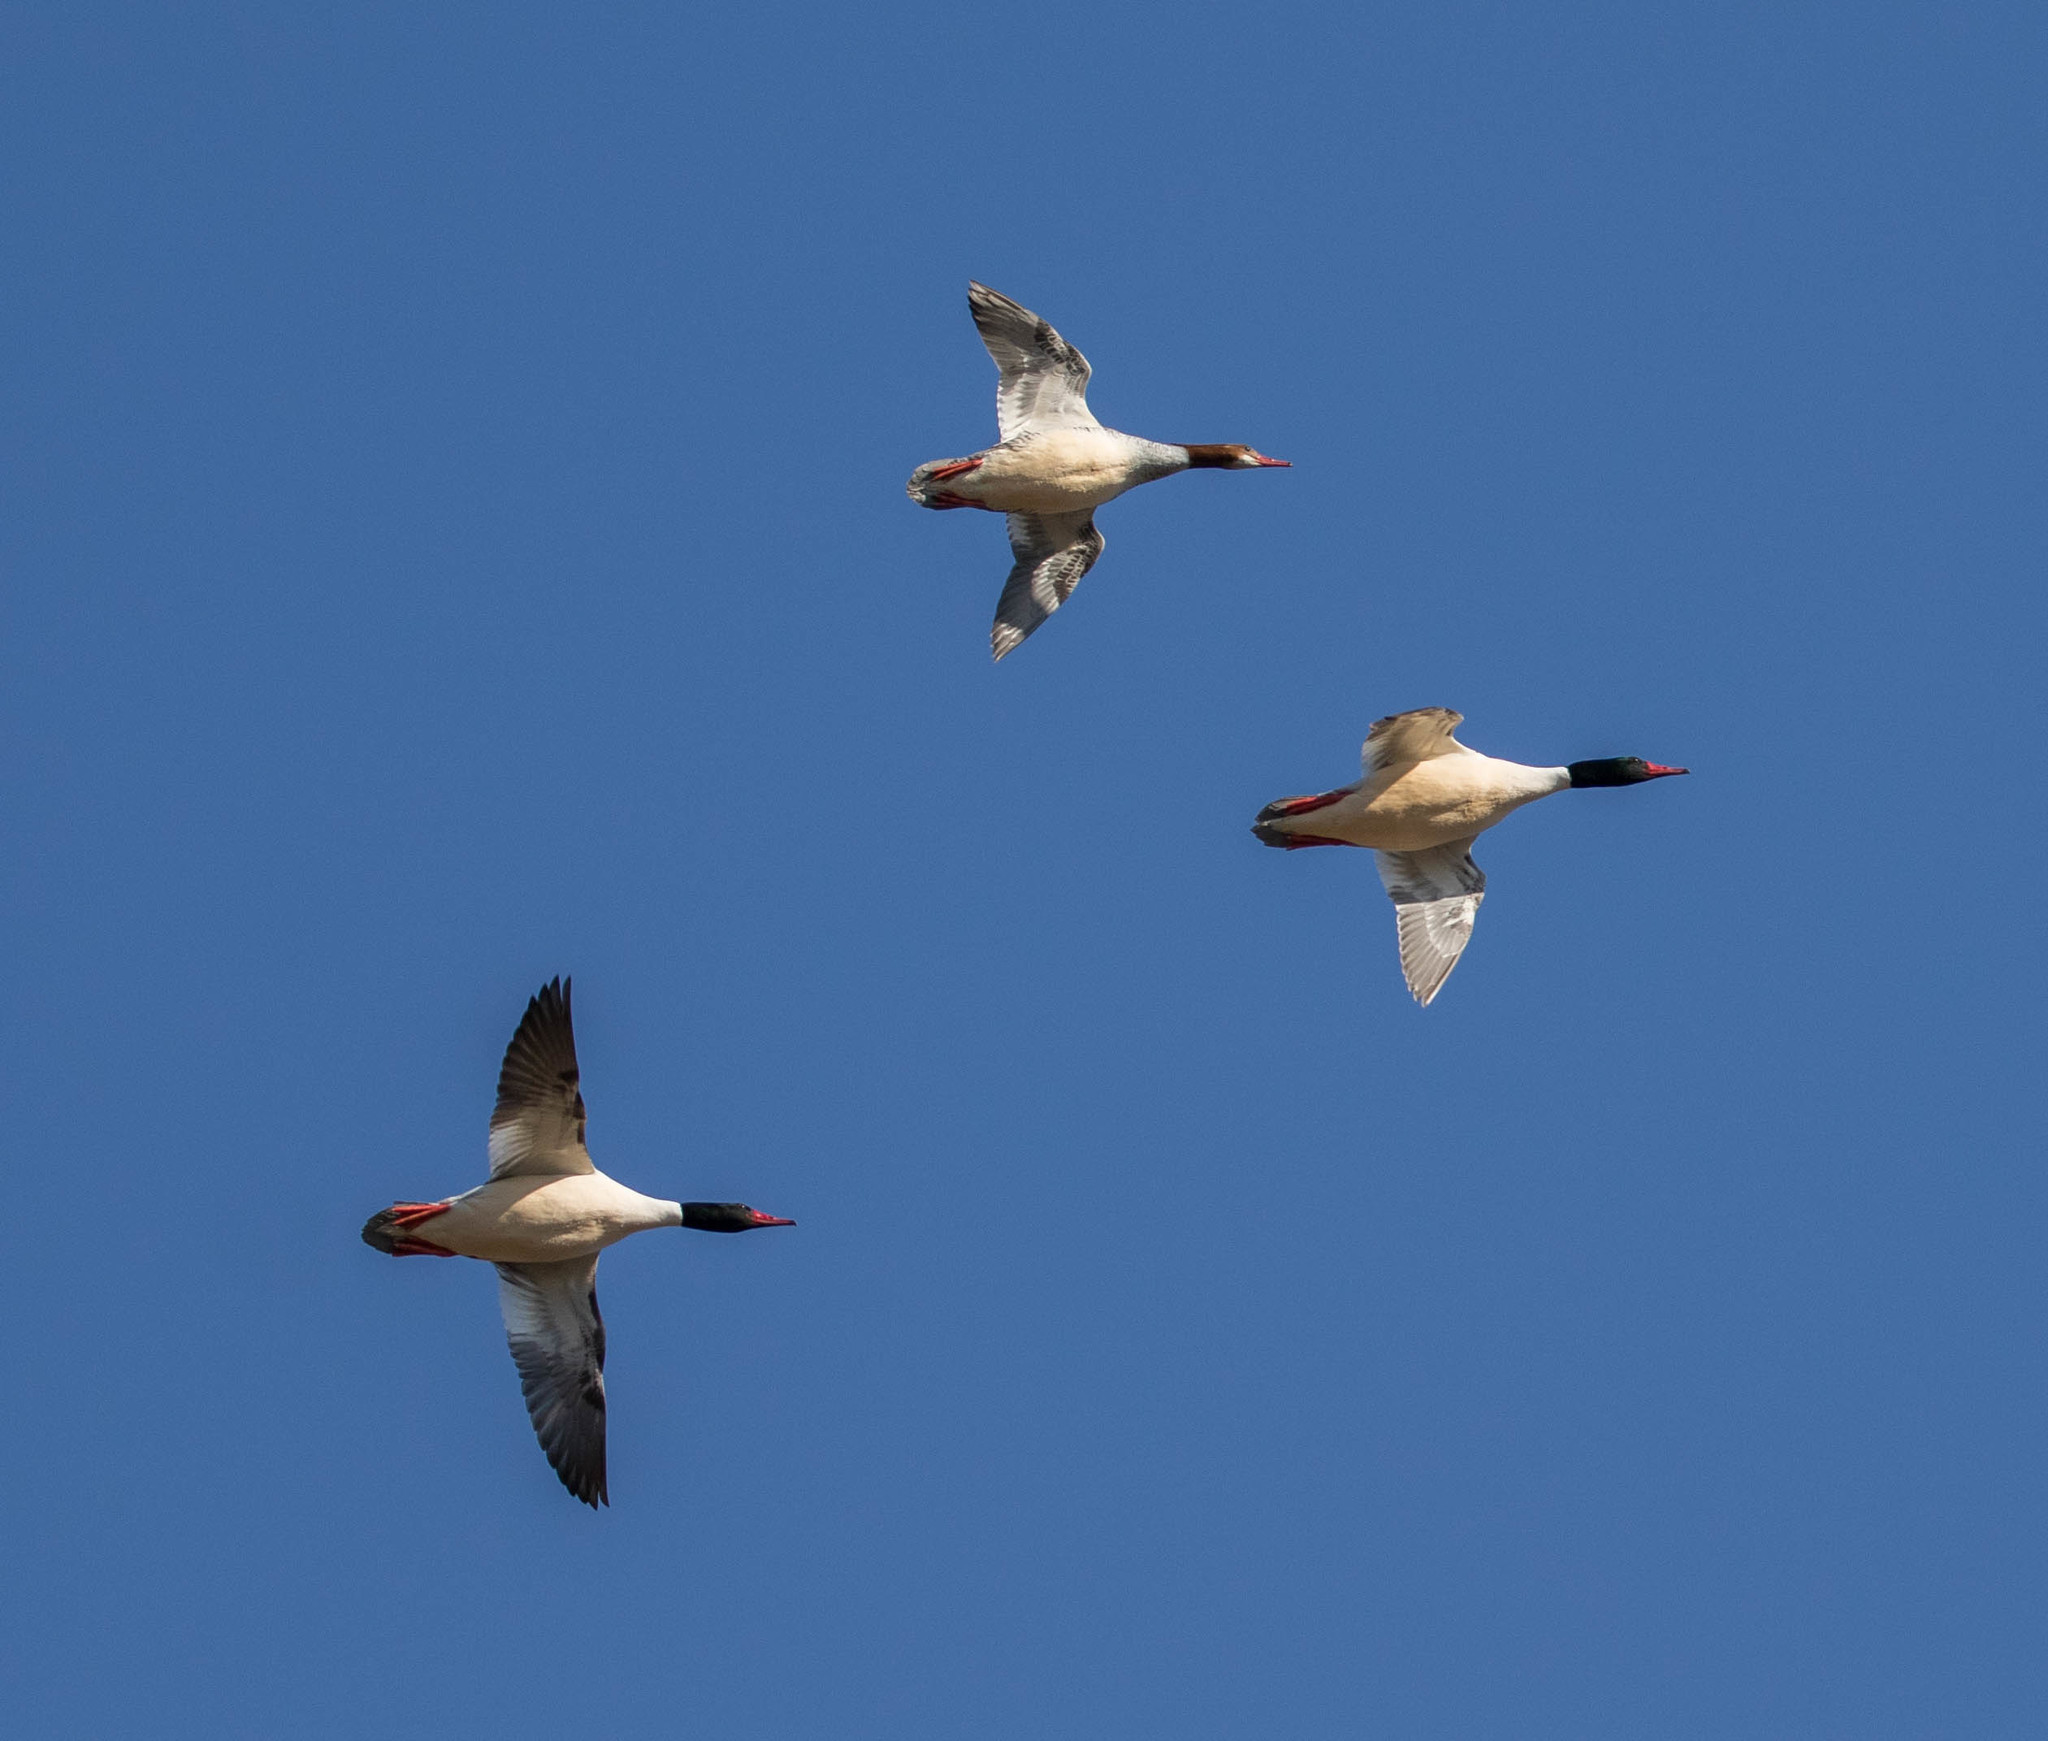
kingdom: Animalia
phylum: Chordata
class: Aves
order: Anseriformes
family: Anatidae
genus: Mergus
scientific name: Mergus merganser
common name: Common merganser
